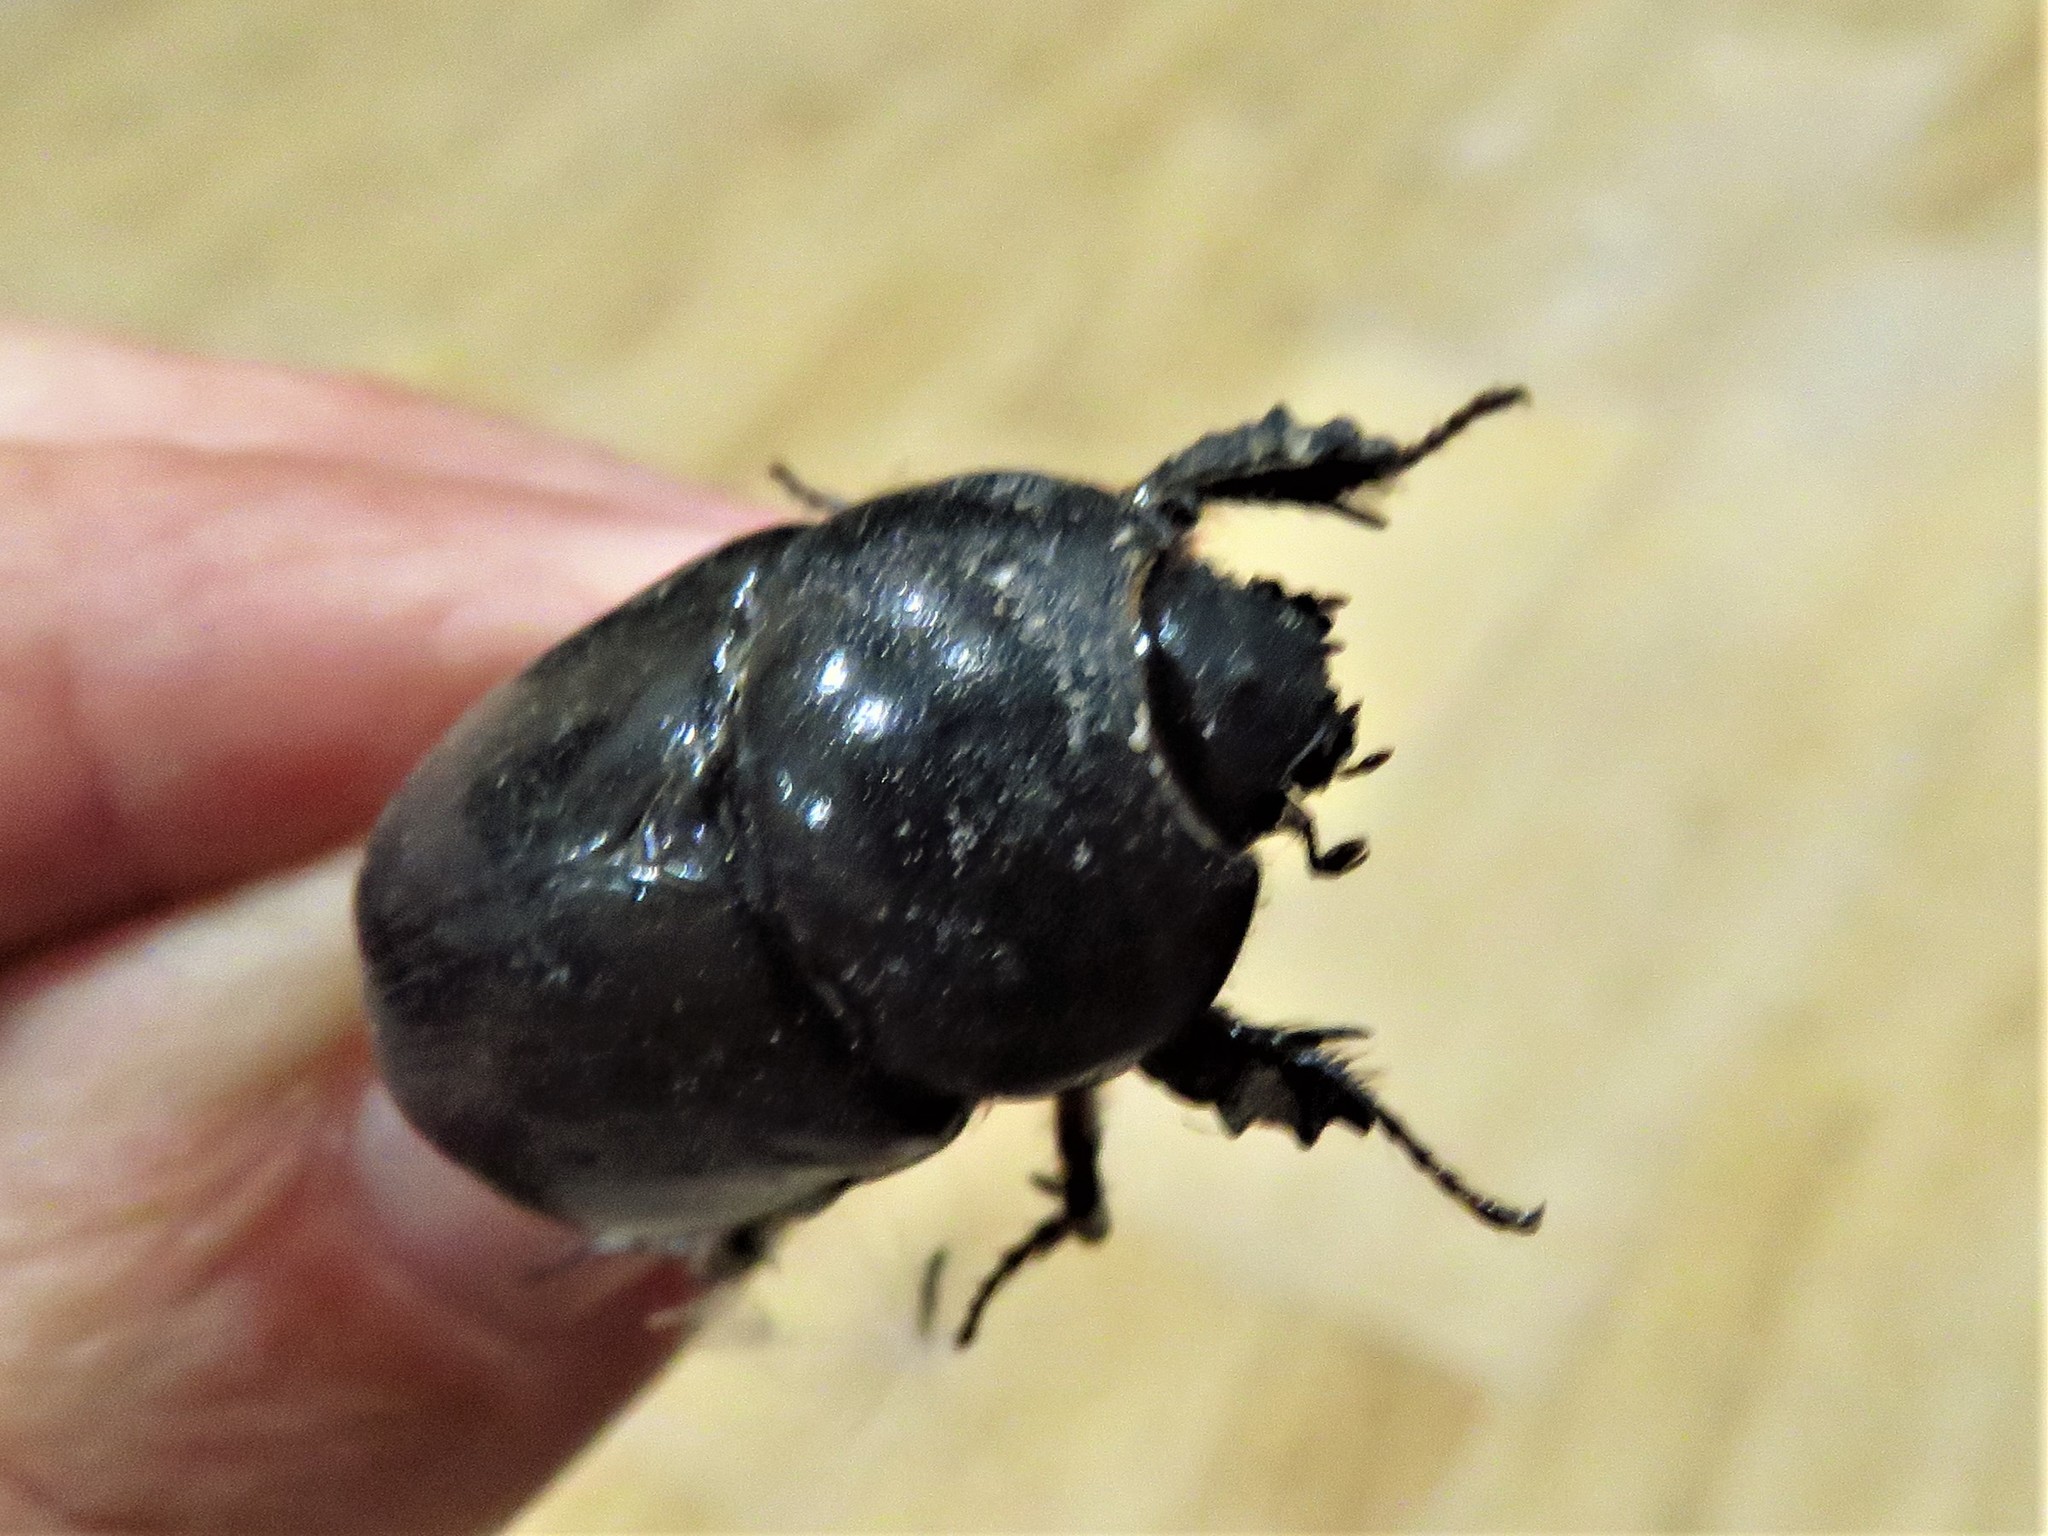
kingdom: Animalia
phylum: Arthropoda
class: Insecta
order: Coleoptera
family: Scarabaeidae
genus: Pentodon
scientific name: Pentodon algerinus
